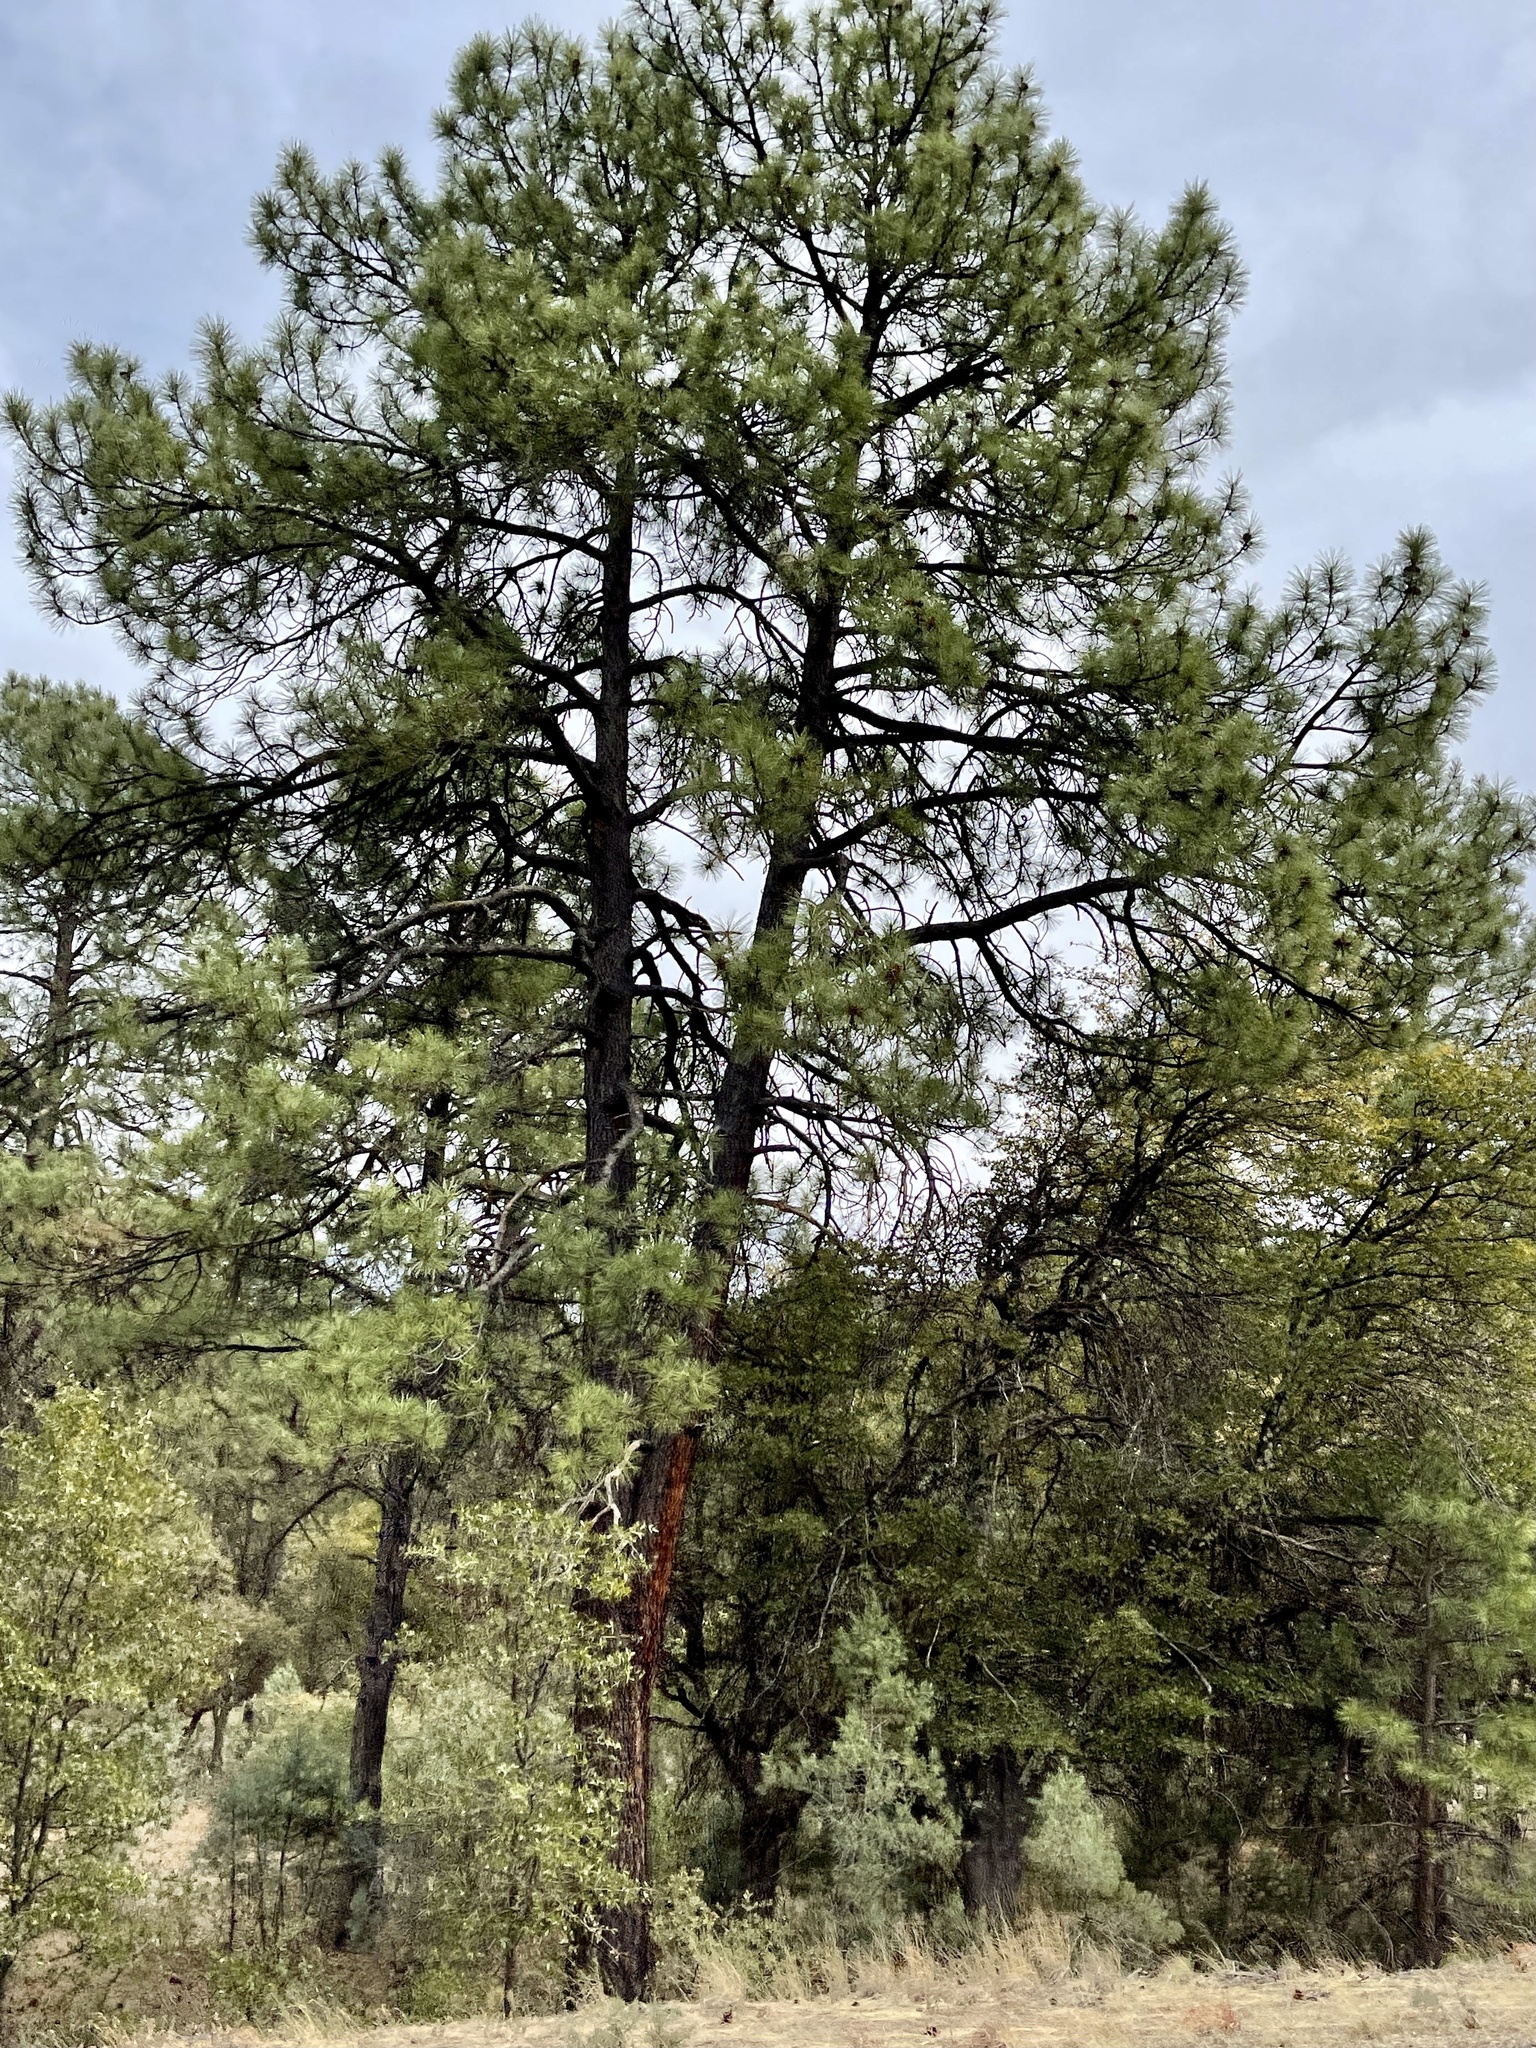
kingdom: Plantae
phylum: Tracheophyta
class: Pinopsida
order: Pinales
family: Pinaceae
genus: Pinus
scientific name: Pinus ponderosa
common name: Western yellow-pine
